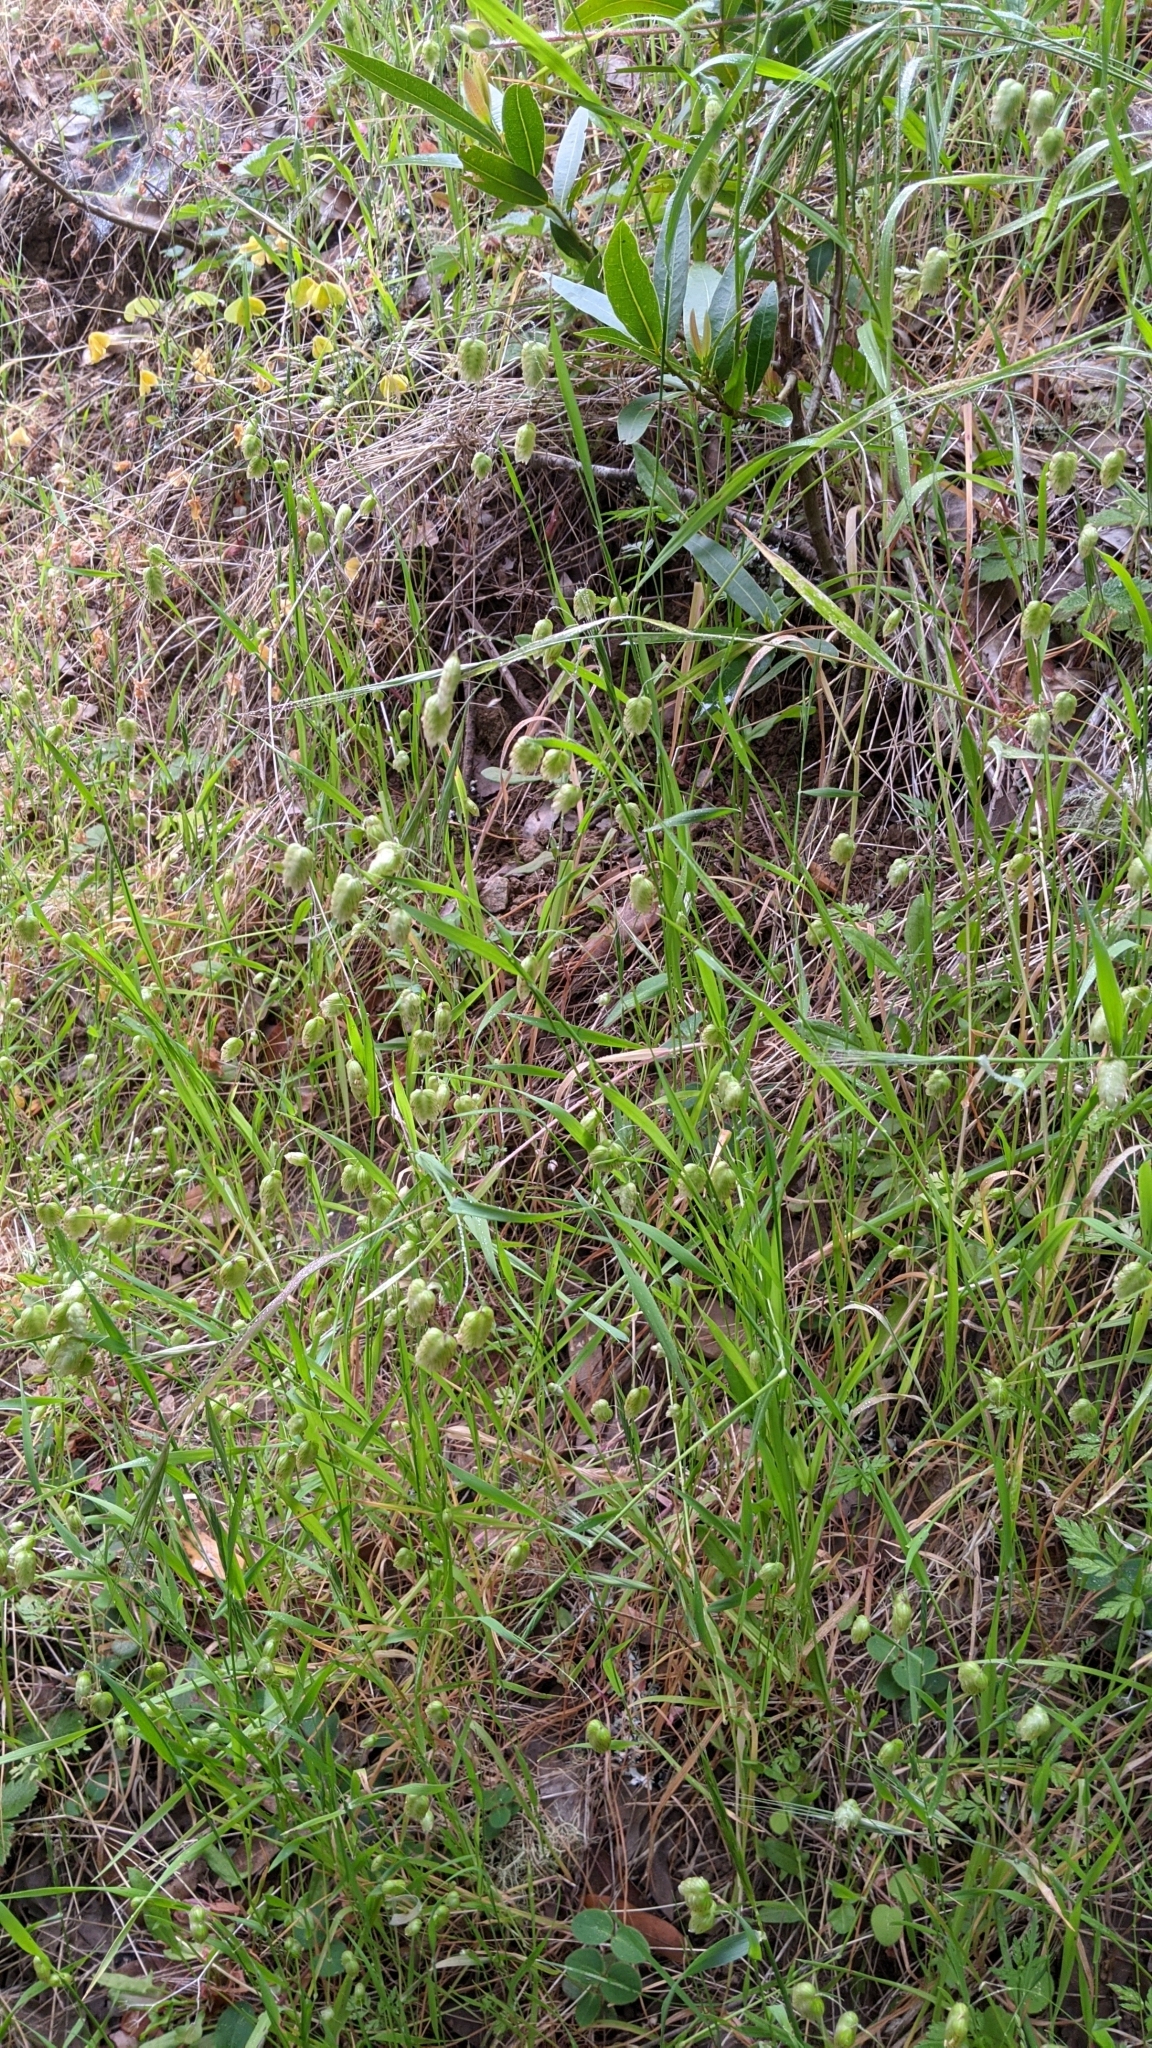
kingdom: Plantae
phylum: Tracheophyta
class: Liliopsida
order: Poales
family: Poaceae
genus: Briza
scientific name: Briza maxima
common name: Big quakinggrass
